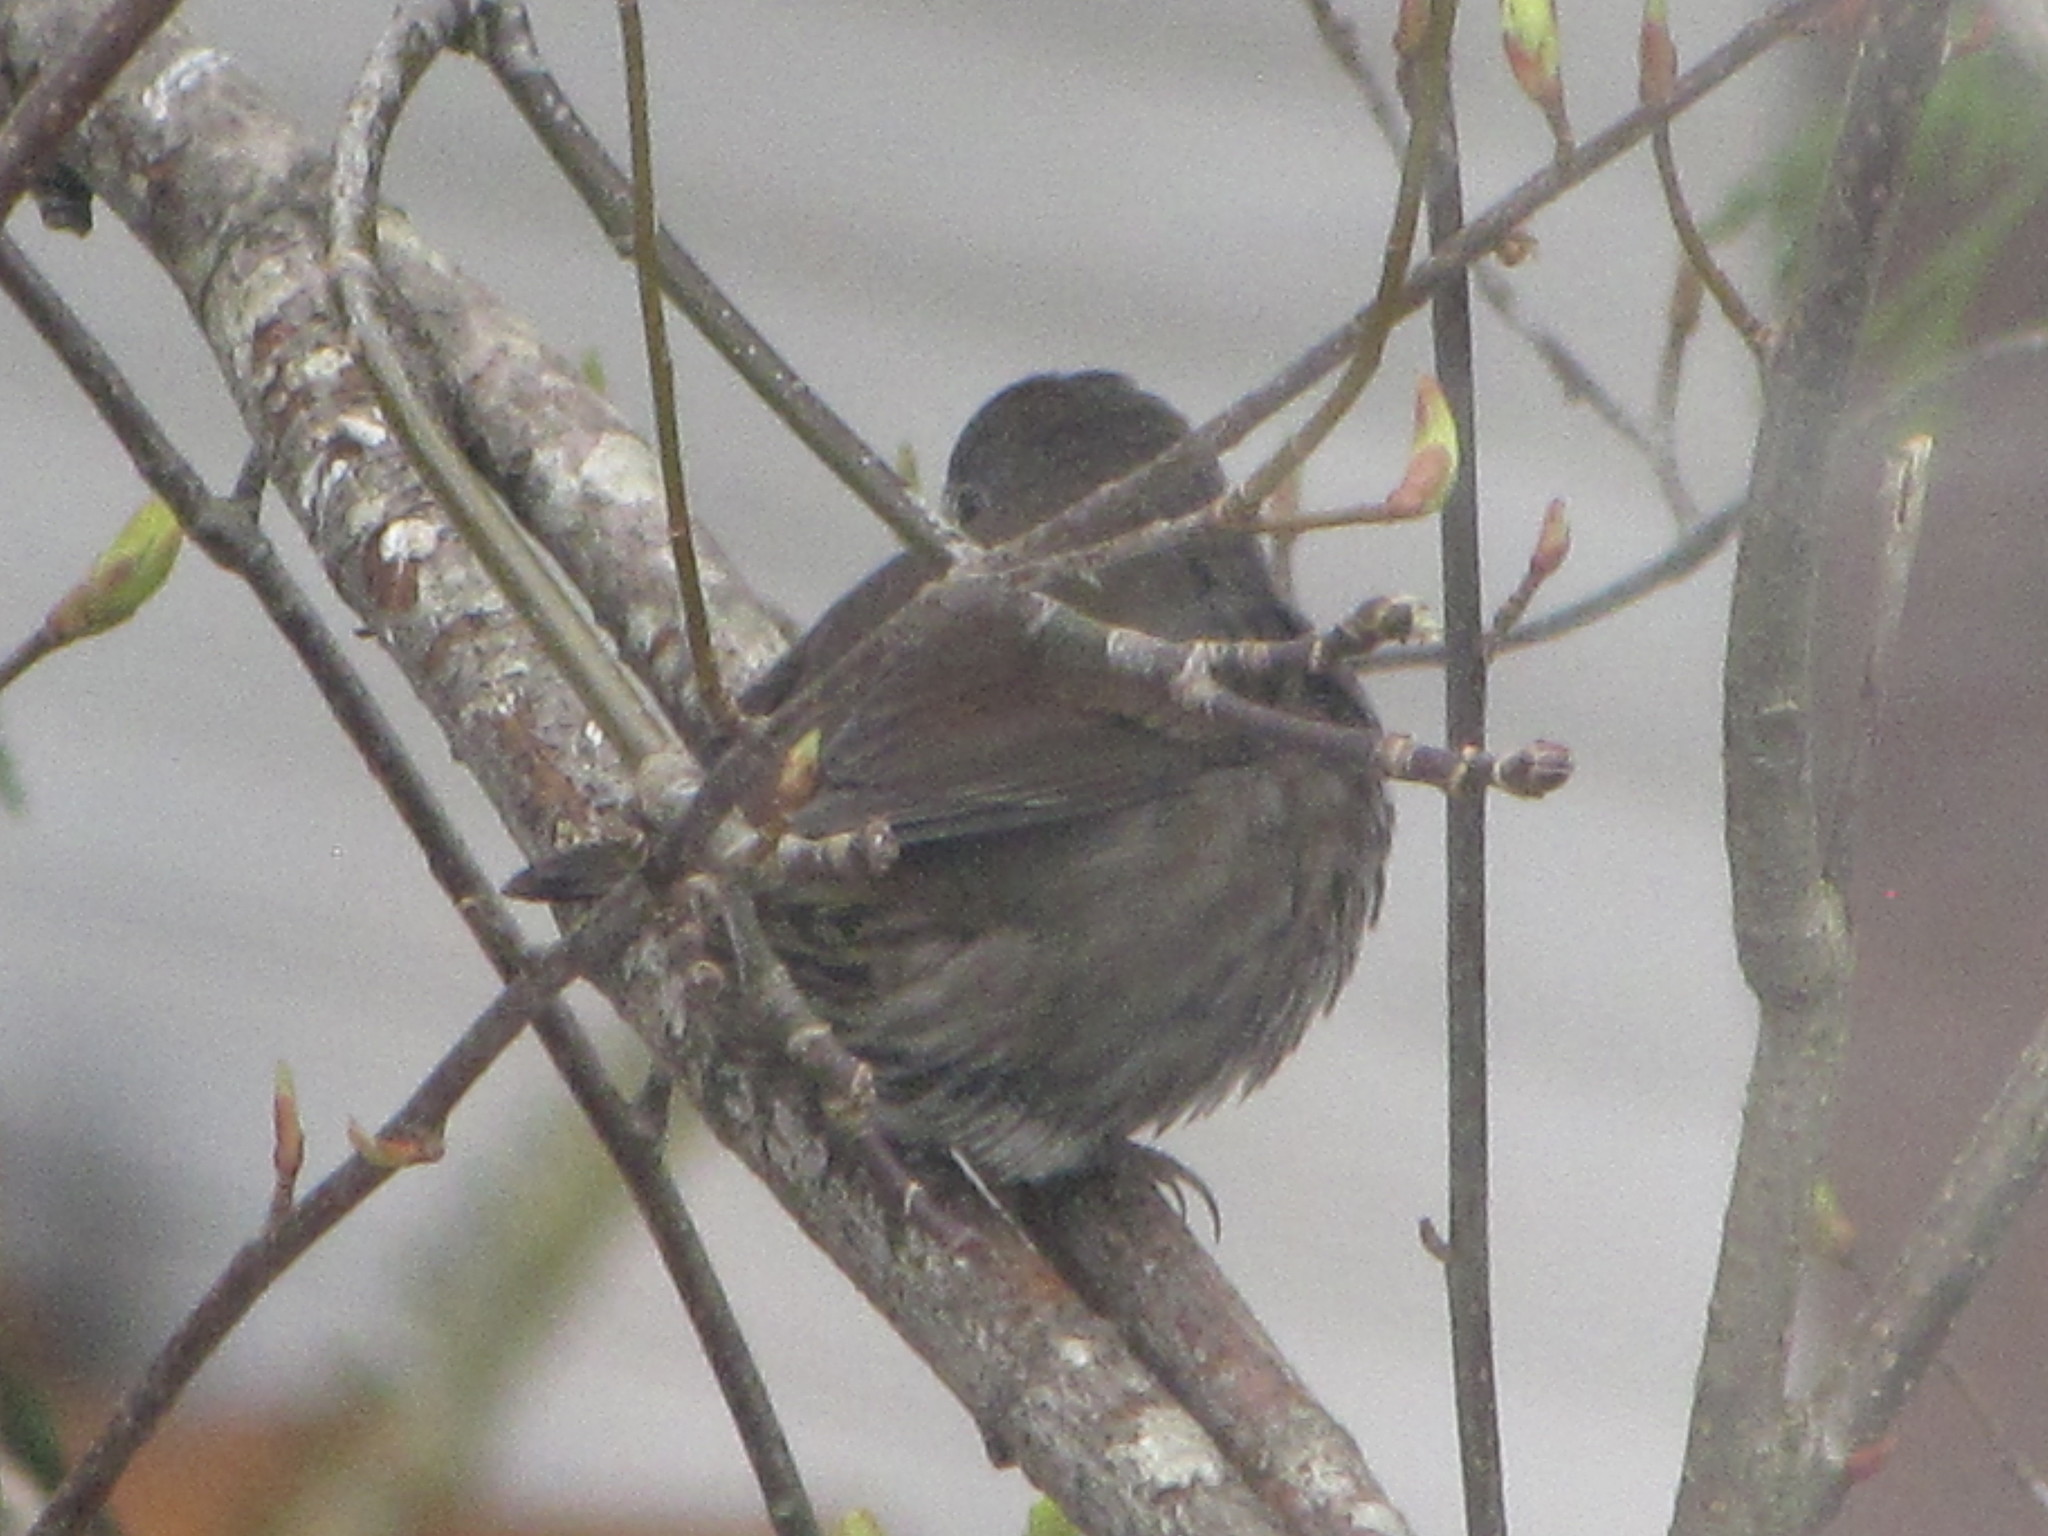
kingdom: Animalia
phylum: Chordata
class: Aves
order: Passeriformes
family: Passerellidae
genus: Passerella
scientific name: Passerella iliaca
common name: Fox sparrow
